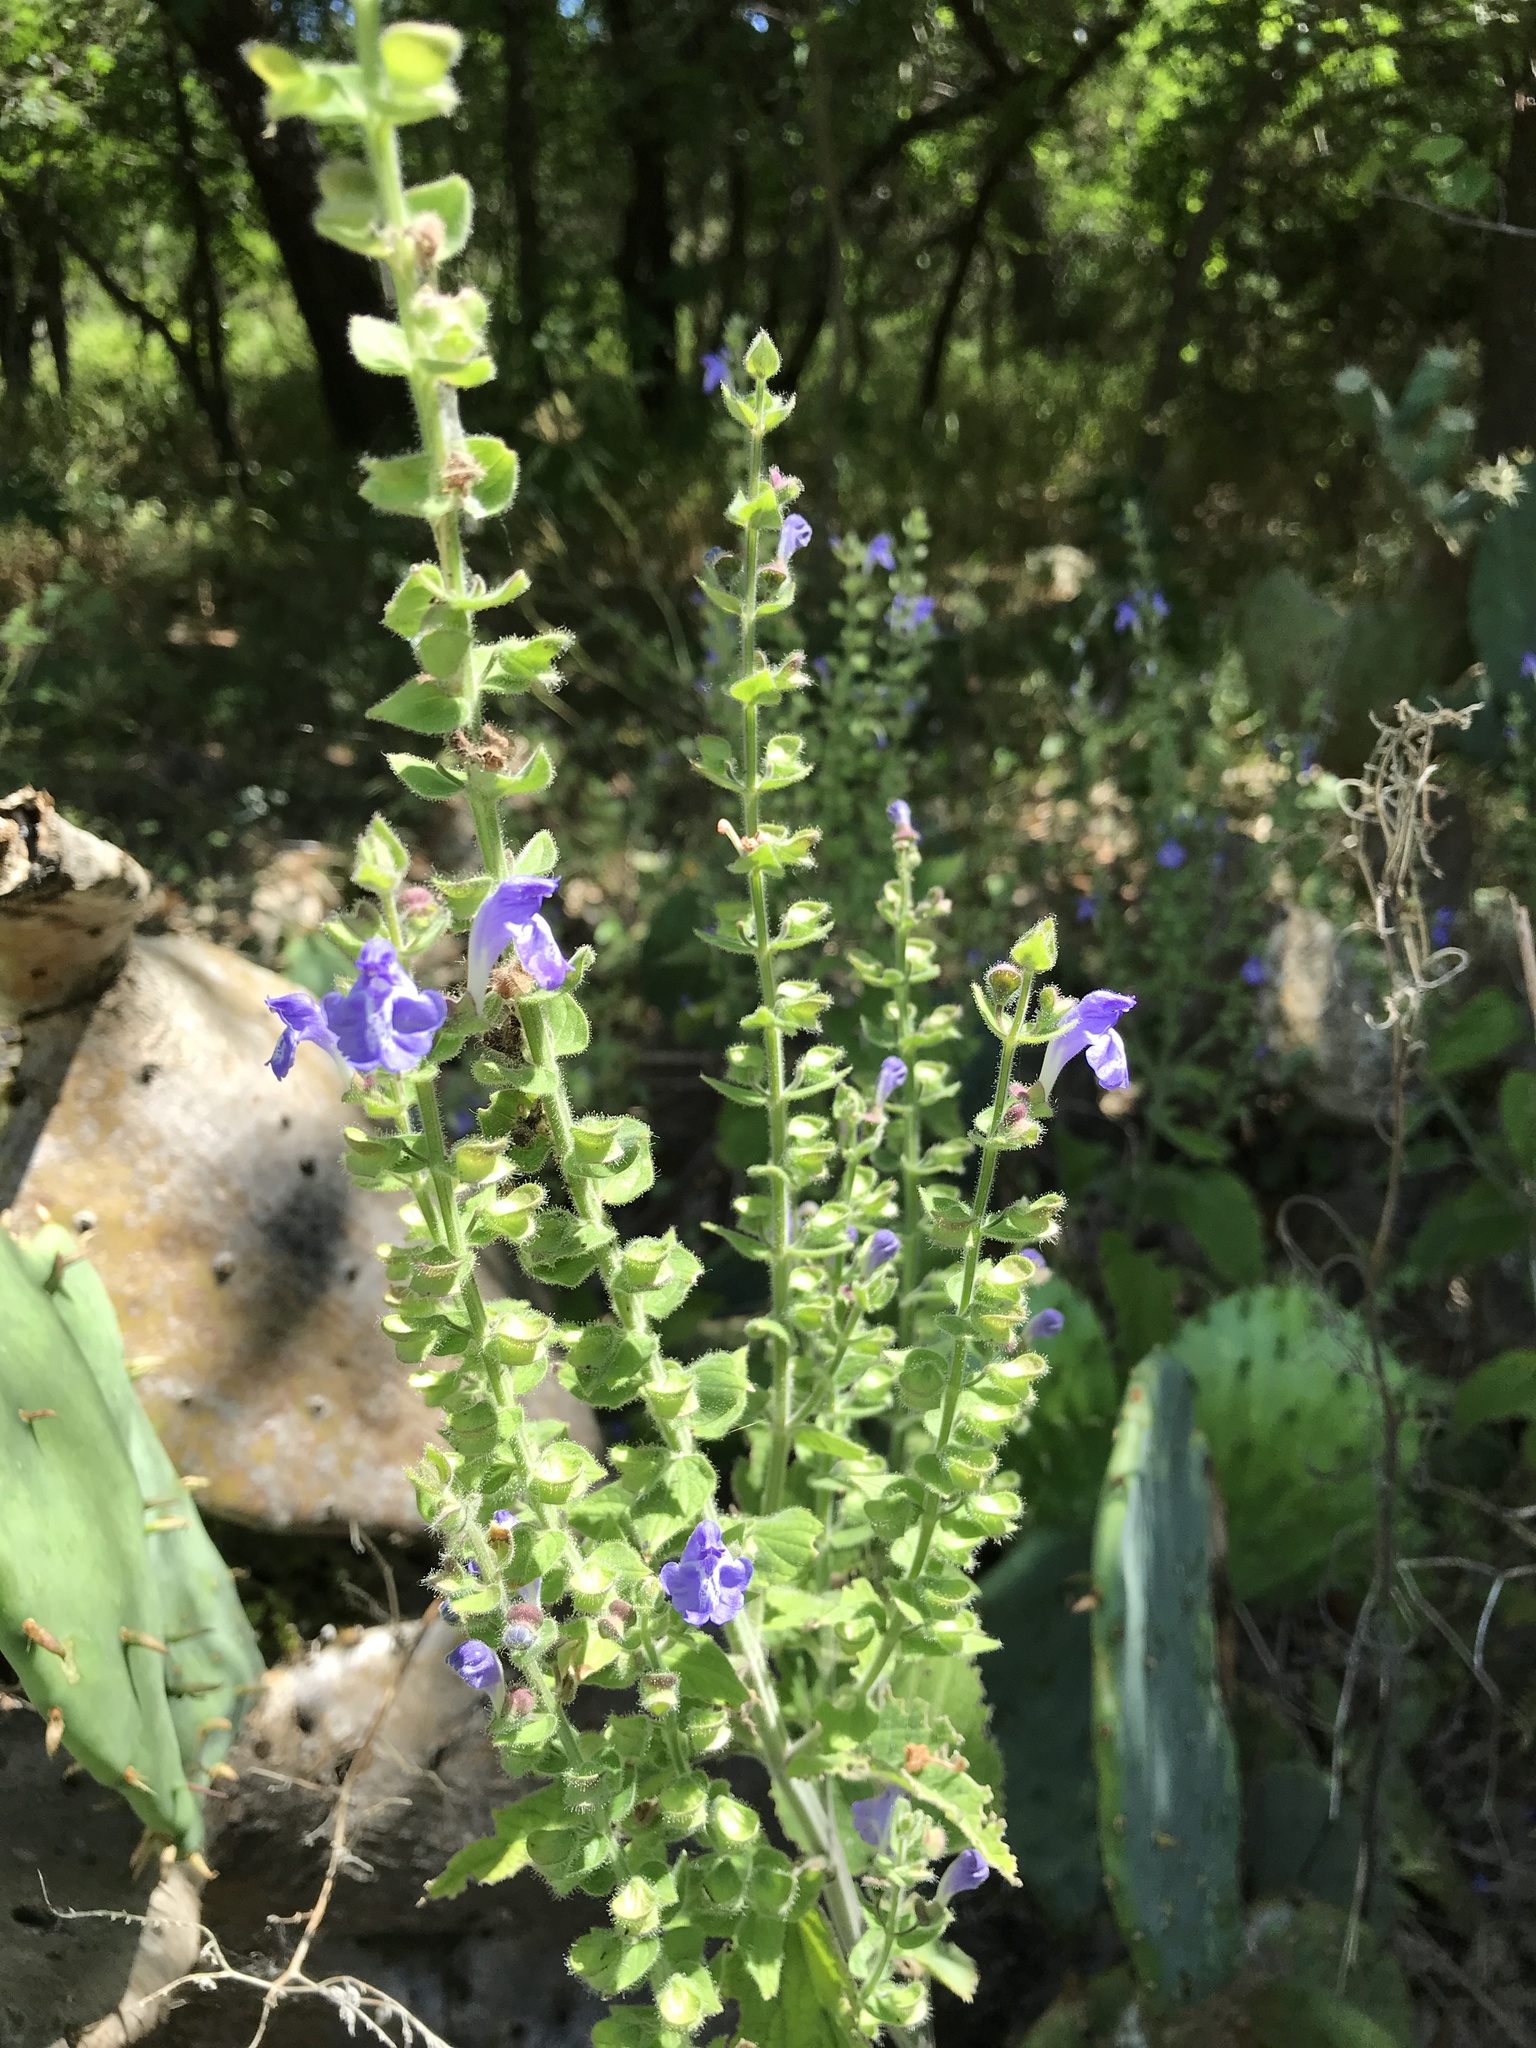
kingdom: Plantae
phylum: Tracheophyta
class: Magnoliopsida
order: Lamiales
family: Lamiaceae
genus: Scutellaria
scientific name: Scutellaria ovata
